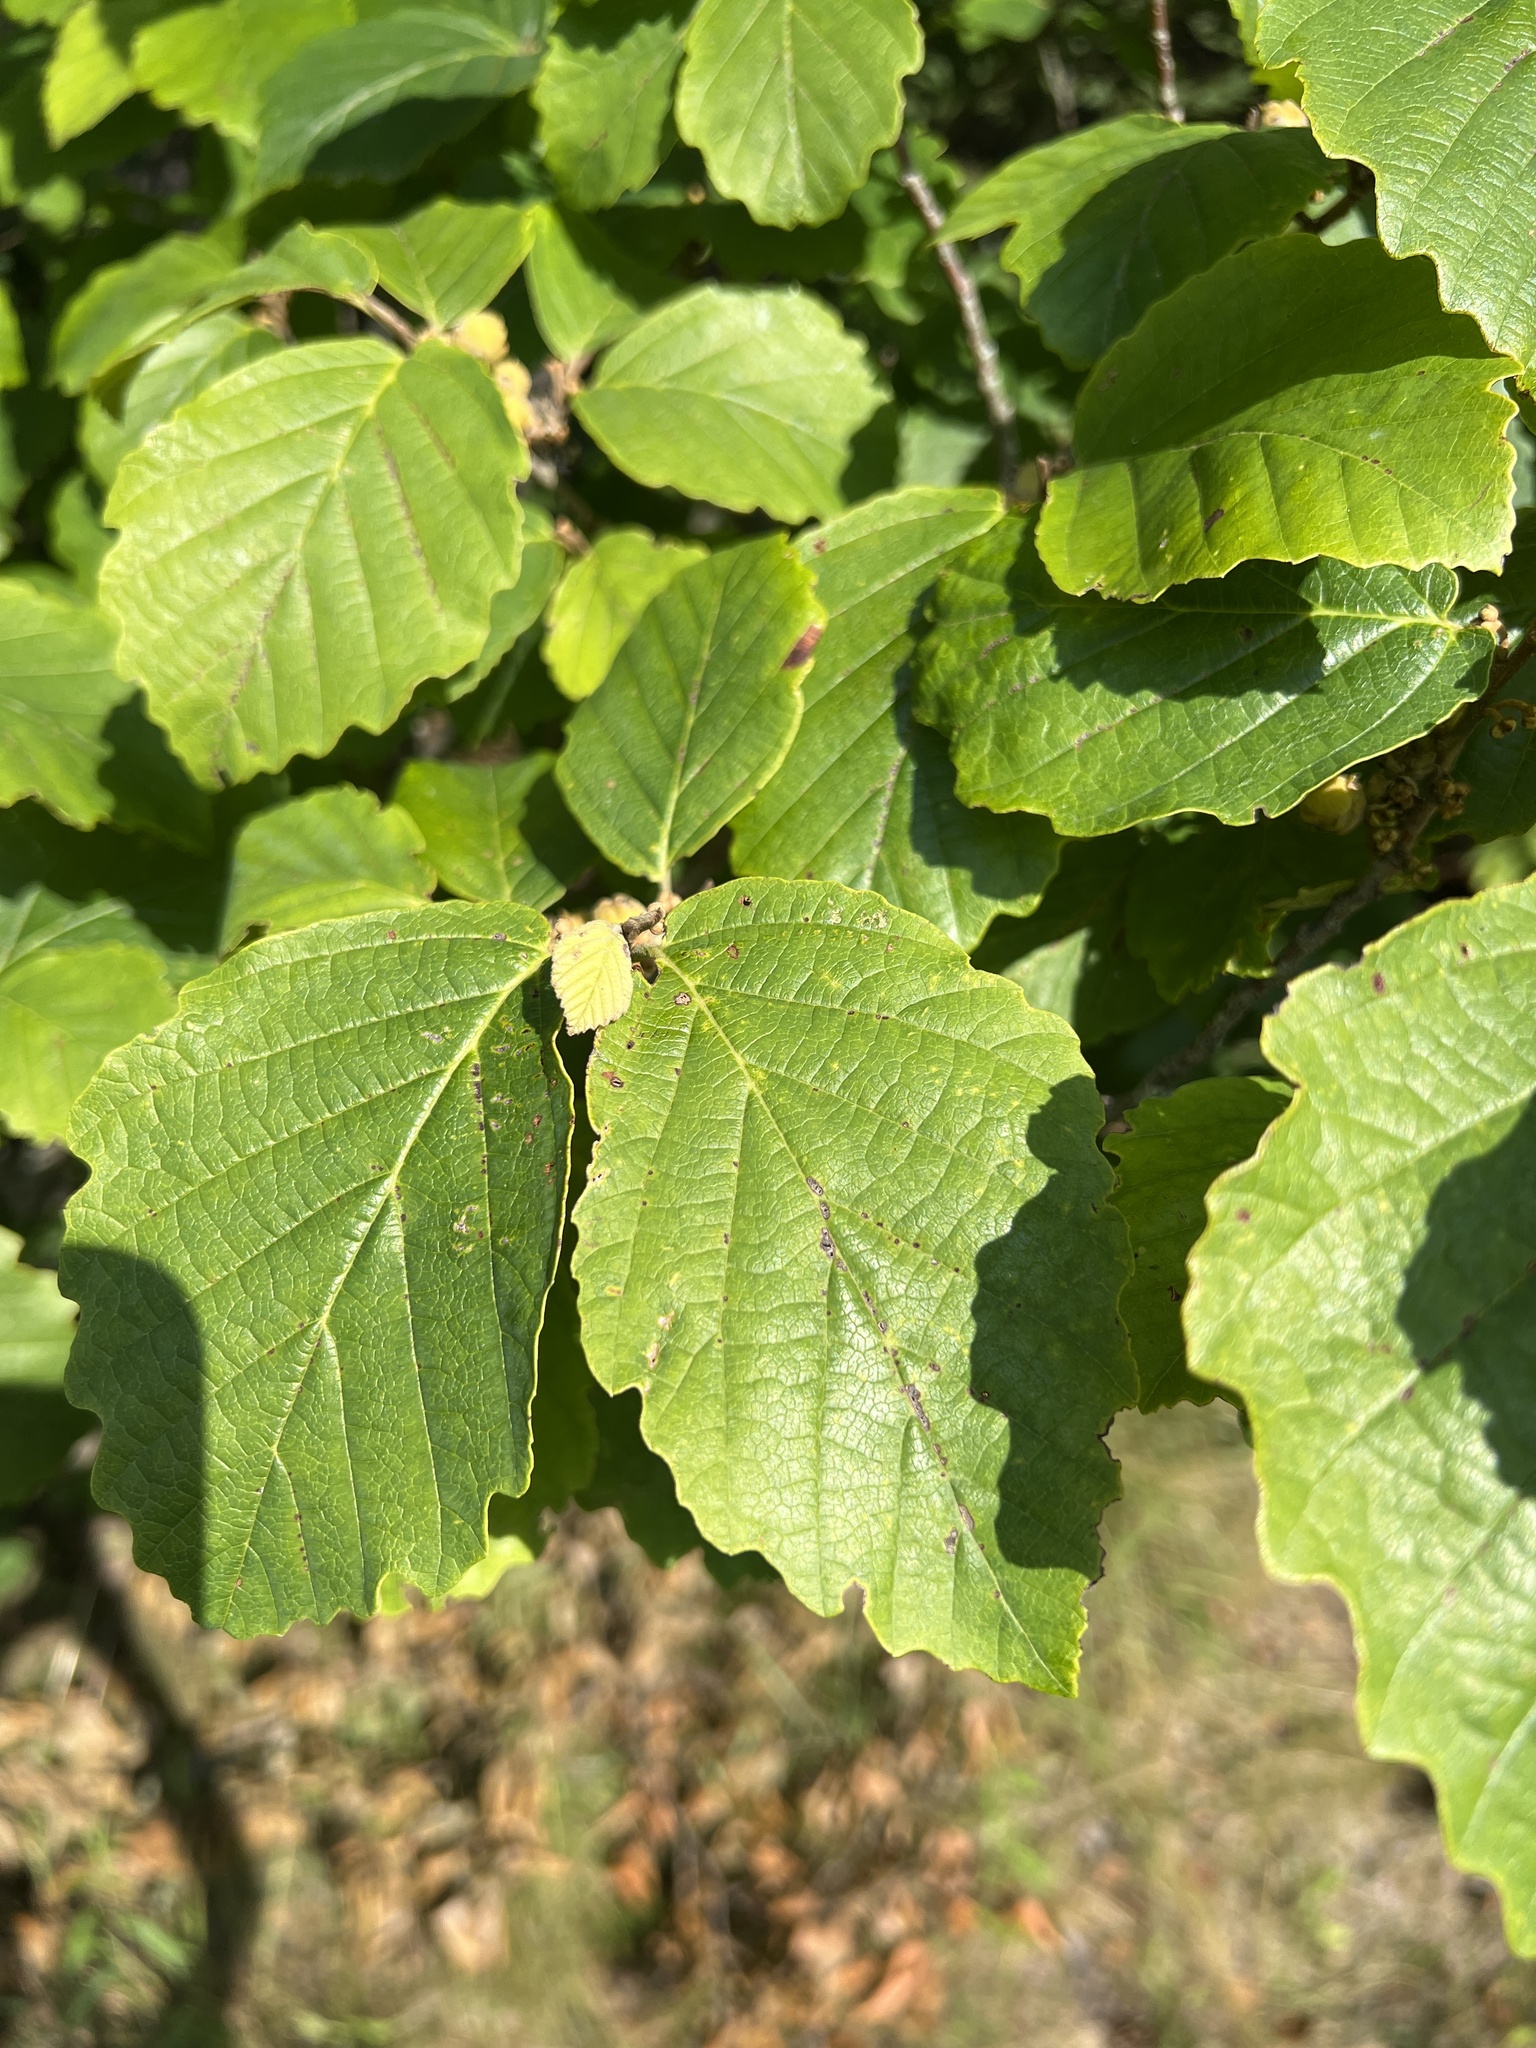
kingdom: Plantae
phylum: Tracheophyta
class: Magnoliopsida
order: Saxifragales
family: Hamamelidaceae
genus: Hamamelis
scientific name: Hamamelis virginiana
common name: Witch-hazel
